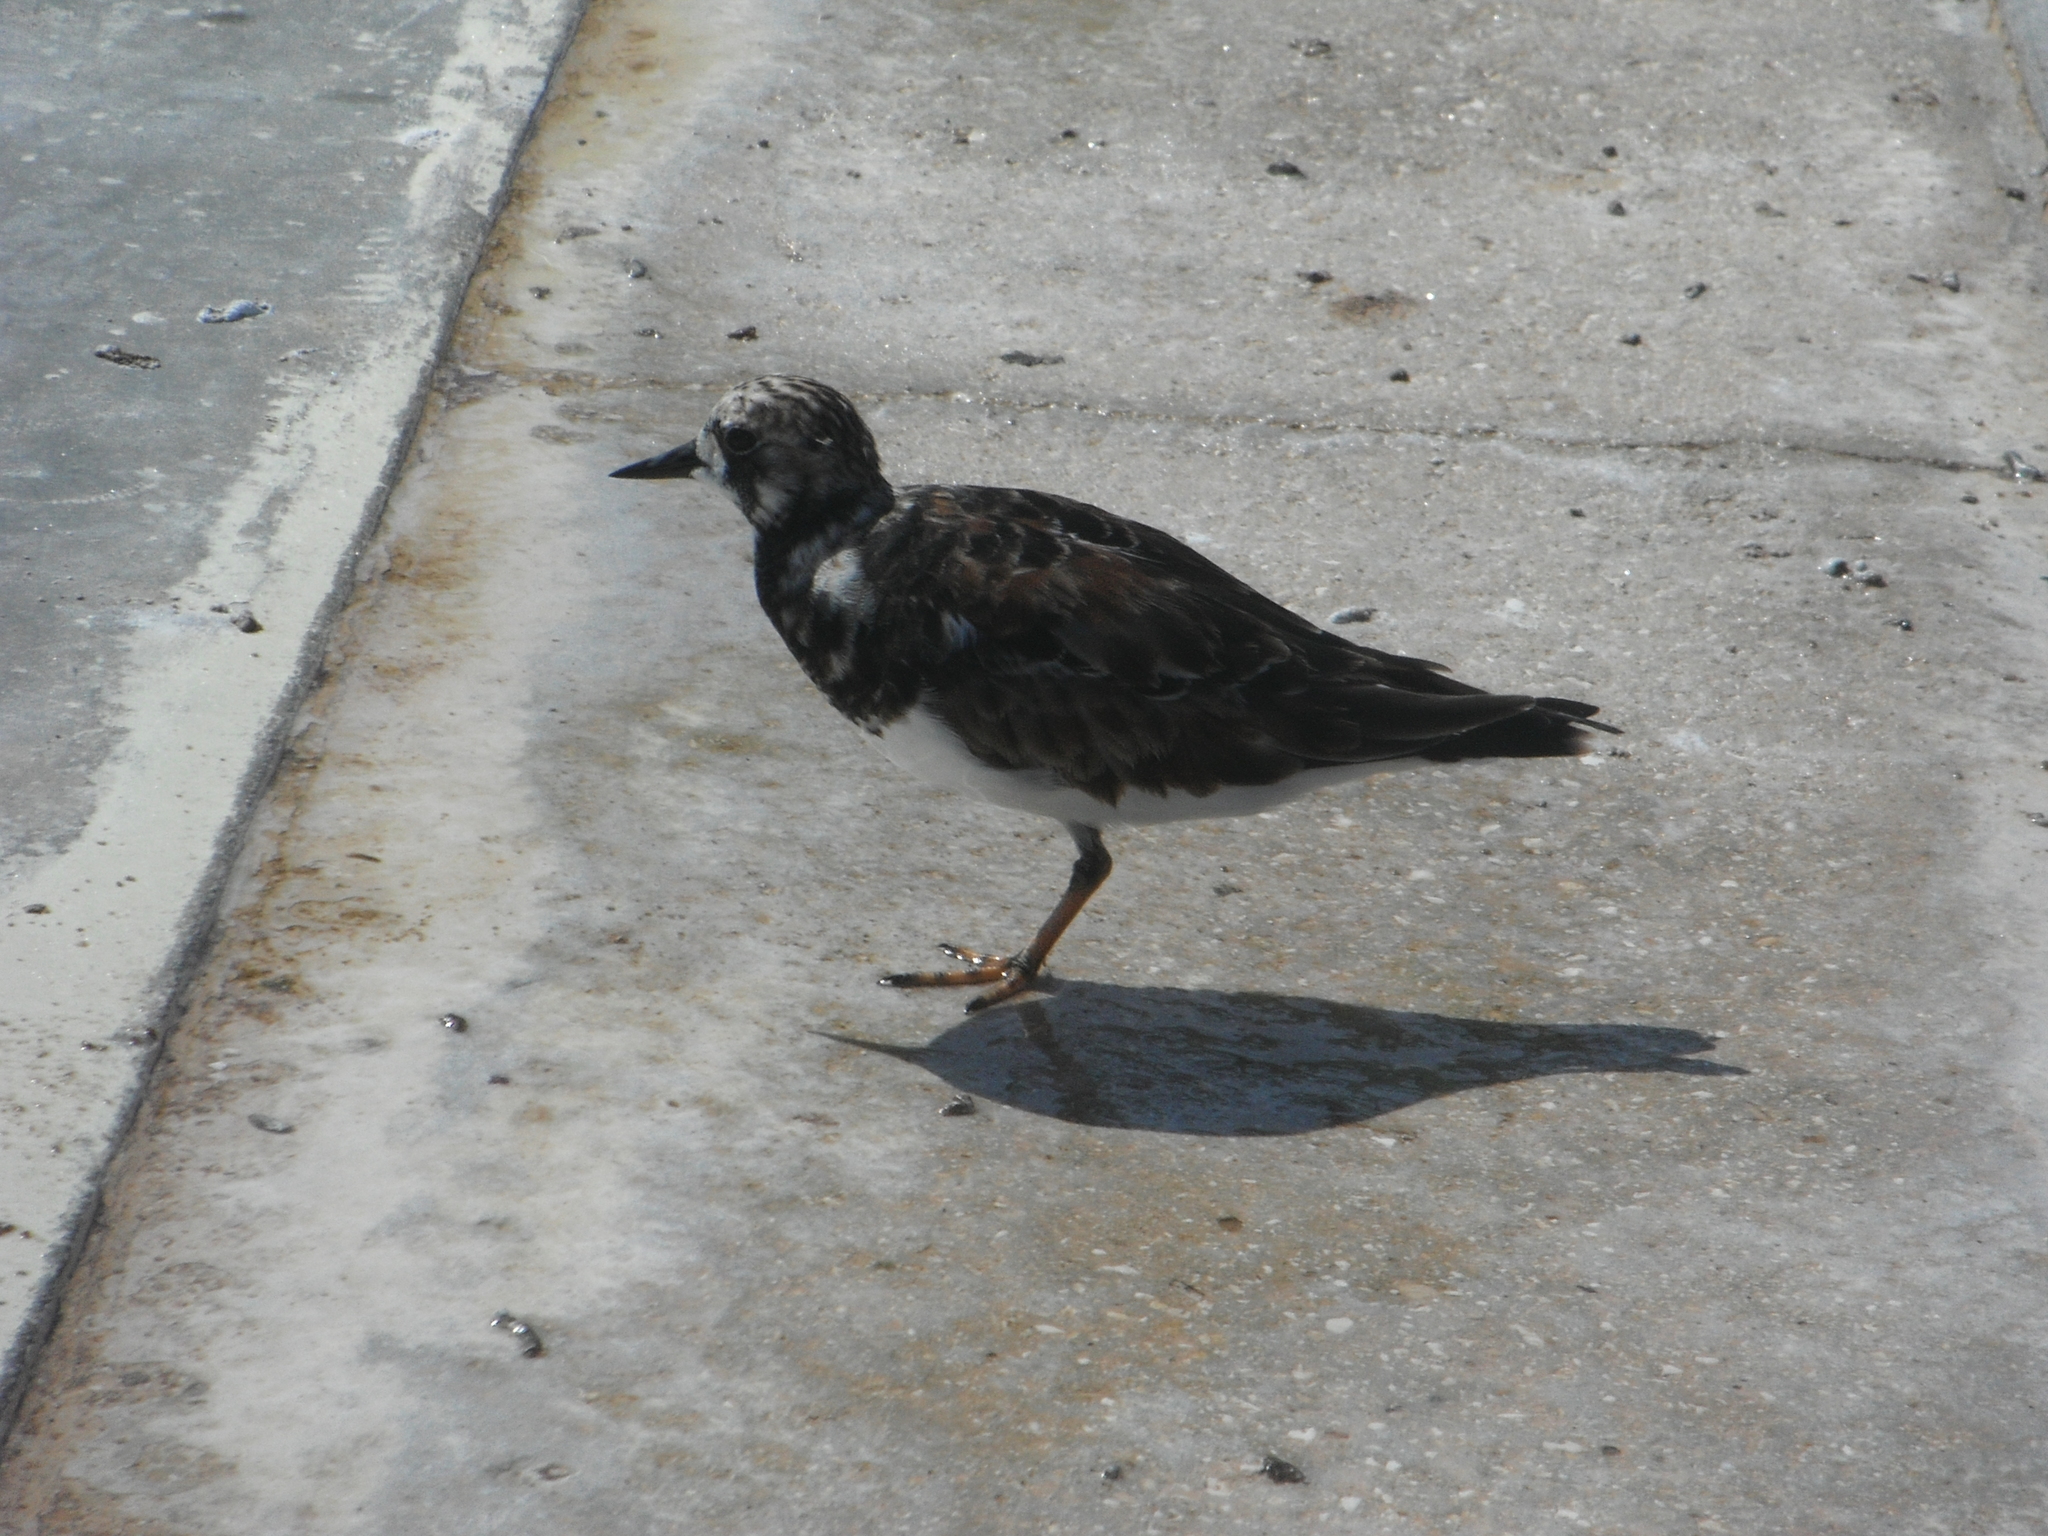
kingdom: Animalia
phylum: Chordata
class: Aves
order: Charadriiformes
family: Scolopacidae
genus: Arenaria
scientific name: Arenaria interpres
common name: Ruddy turnstone
